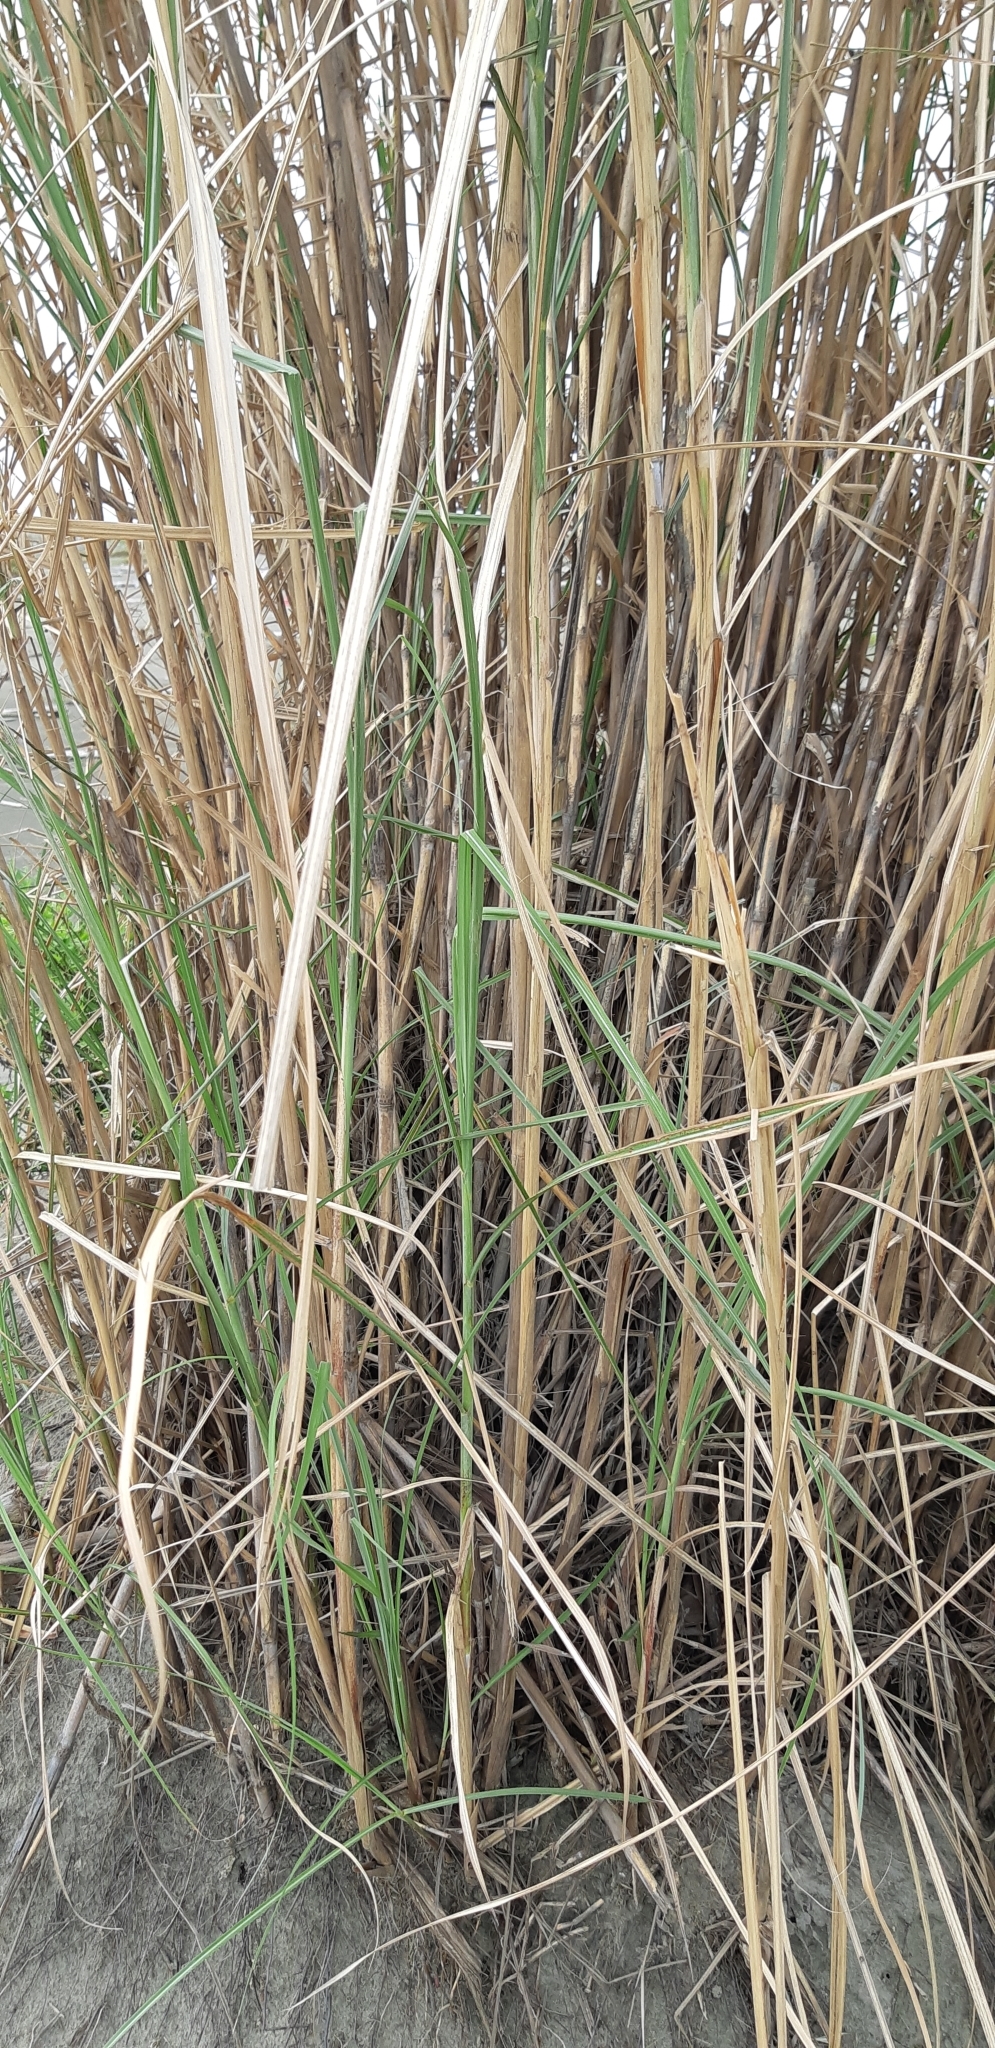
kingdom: Plantae
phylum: Tracheophyta
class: Liliopsida
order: Poales
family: Poaceae
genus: Saccharum
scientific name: Saccharum spontaneum
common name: Wild sugarcane
